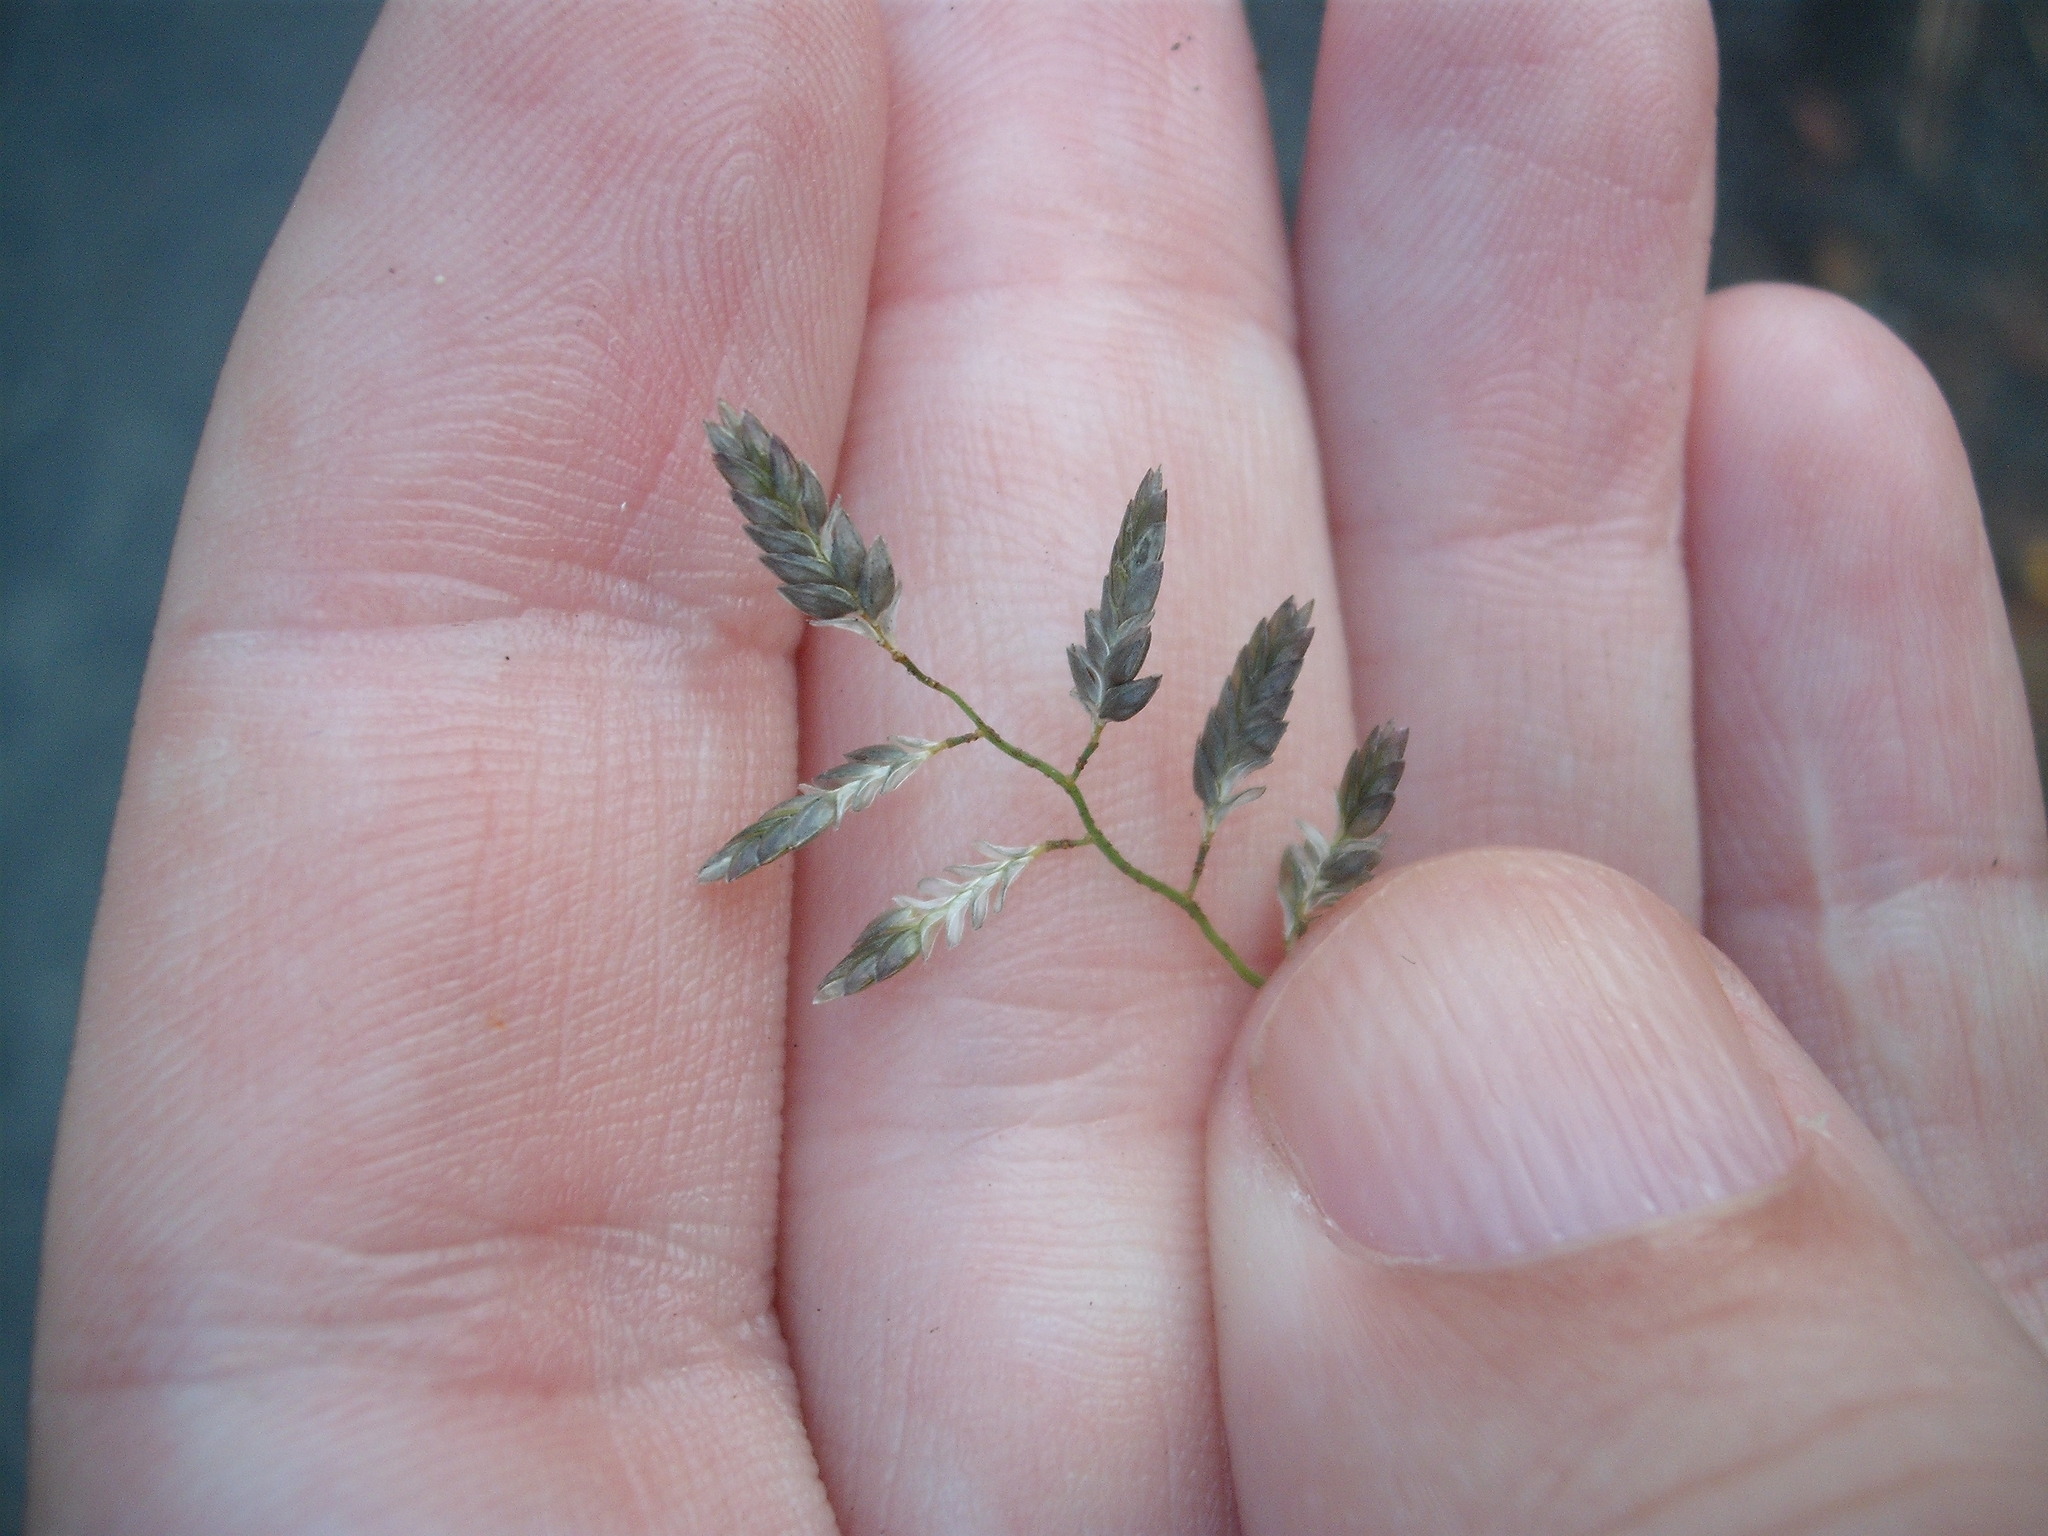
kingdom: Plantae
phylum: Tracheophyta
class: Liliopsida
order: Poales
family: Poaceae
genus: Eragrostis
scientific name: Eragrostis cilianensis
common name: Stinkgrass
